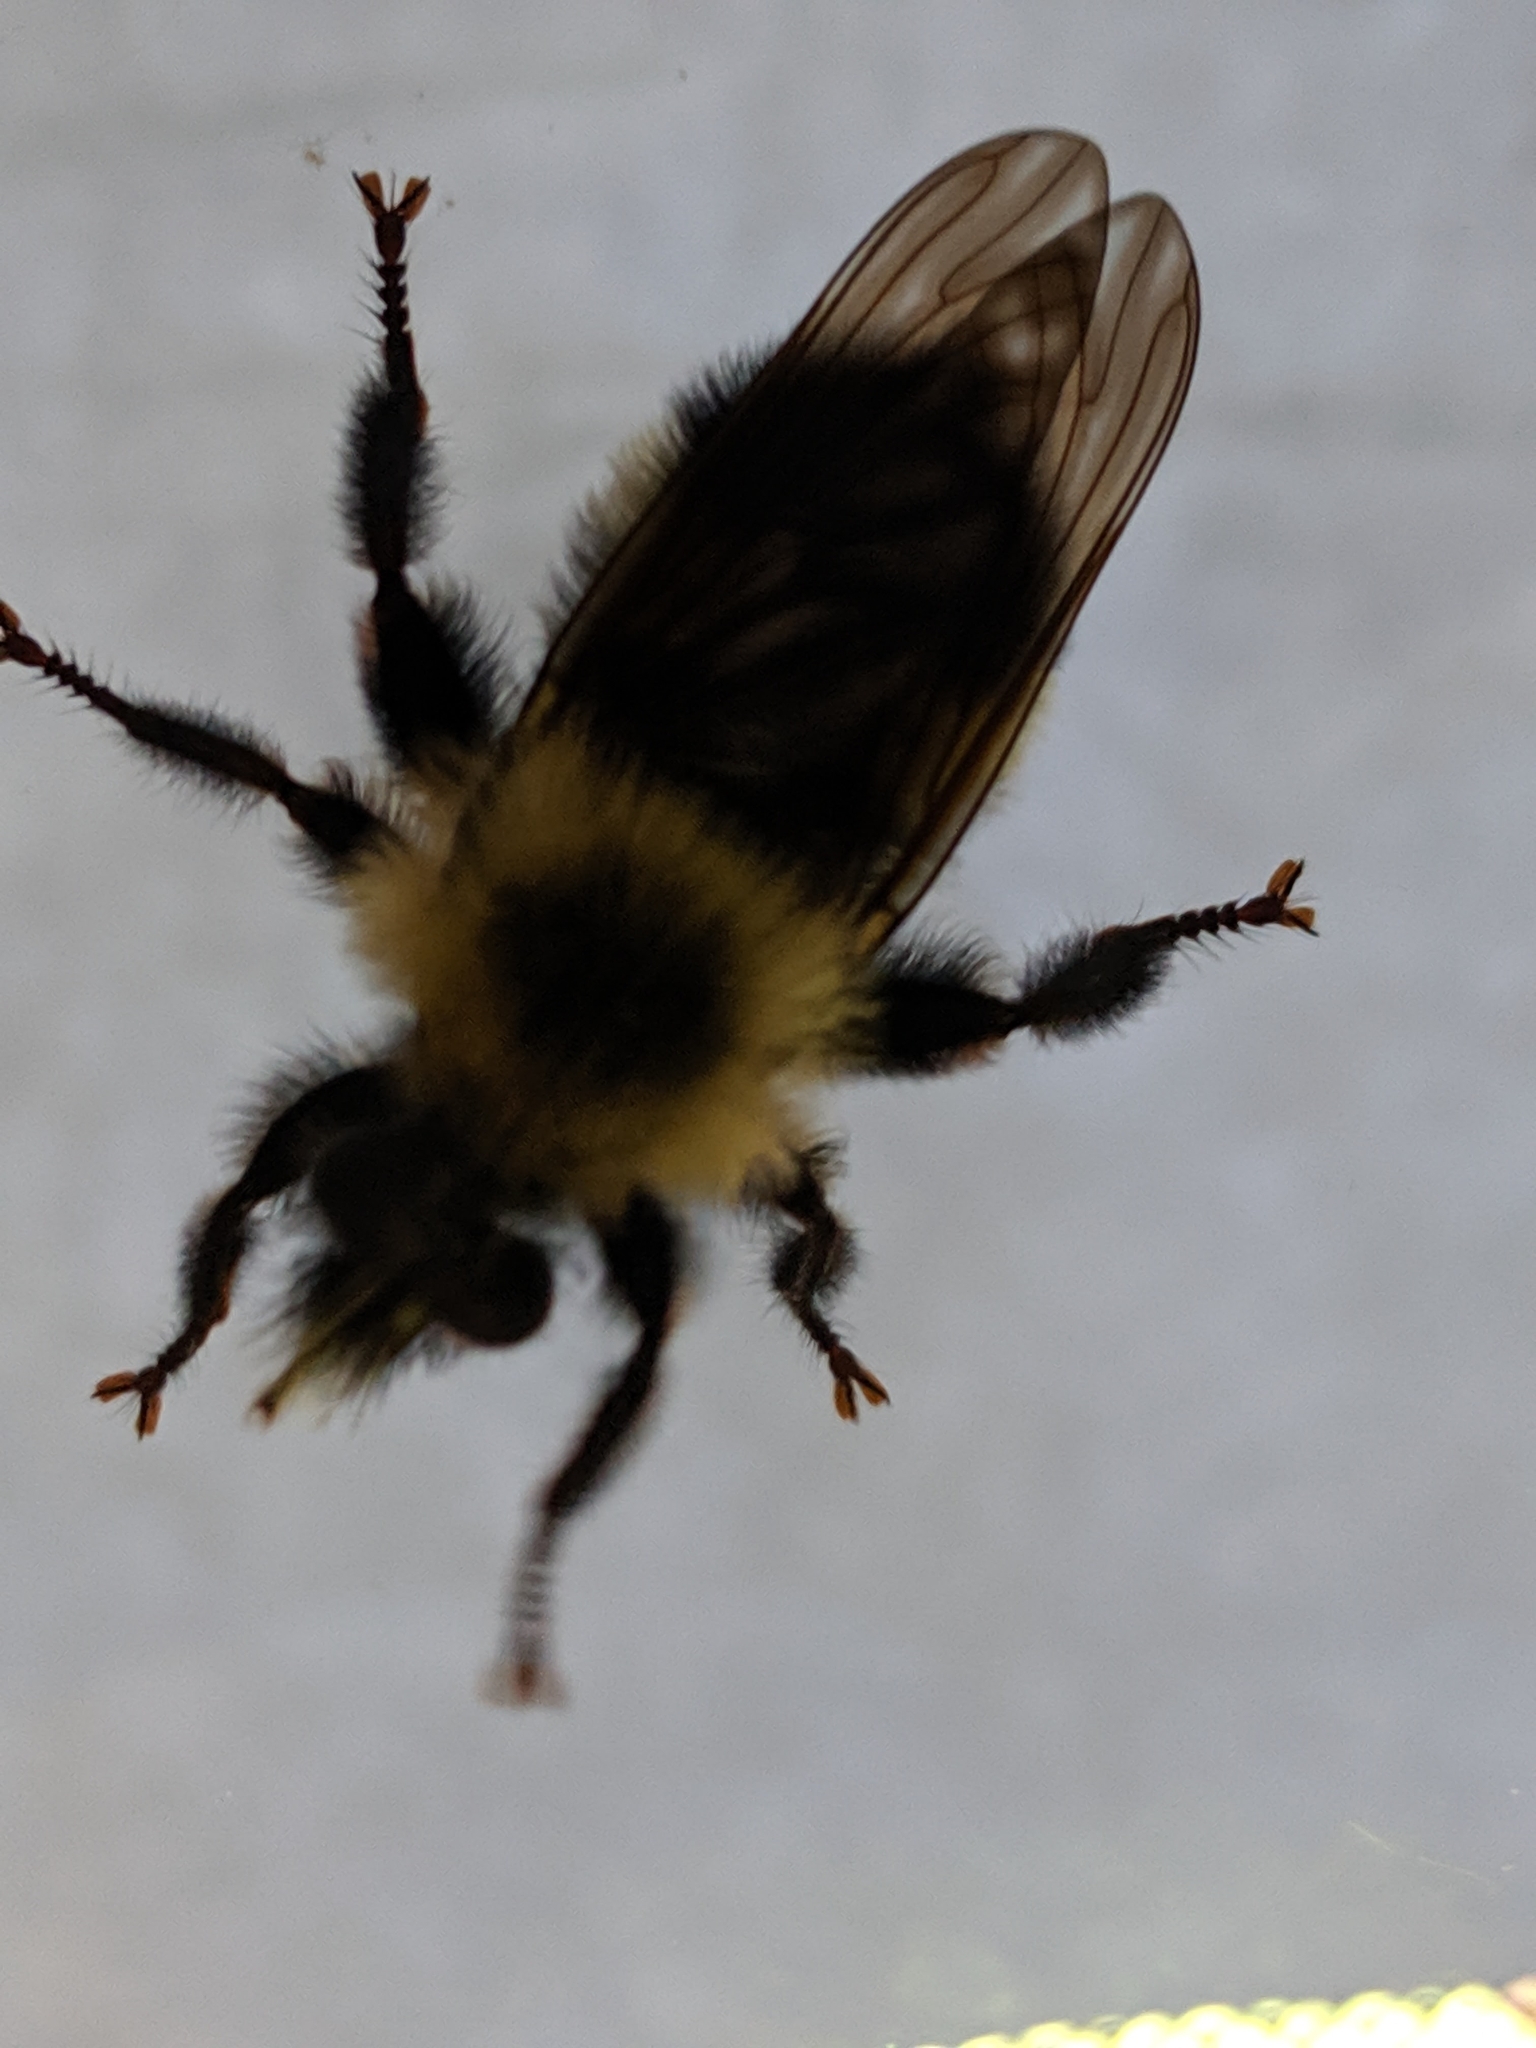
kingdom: Animalia
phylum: Arthropoda
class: Insecta
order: Diptera
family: Asilidae
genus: Laphria
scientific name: Laphria thoracica
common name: Bumble bee mimic robber fly
